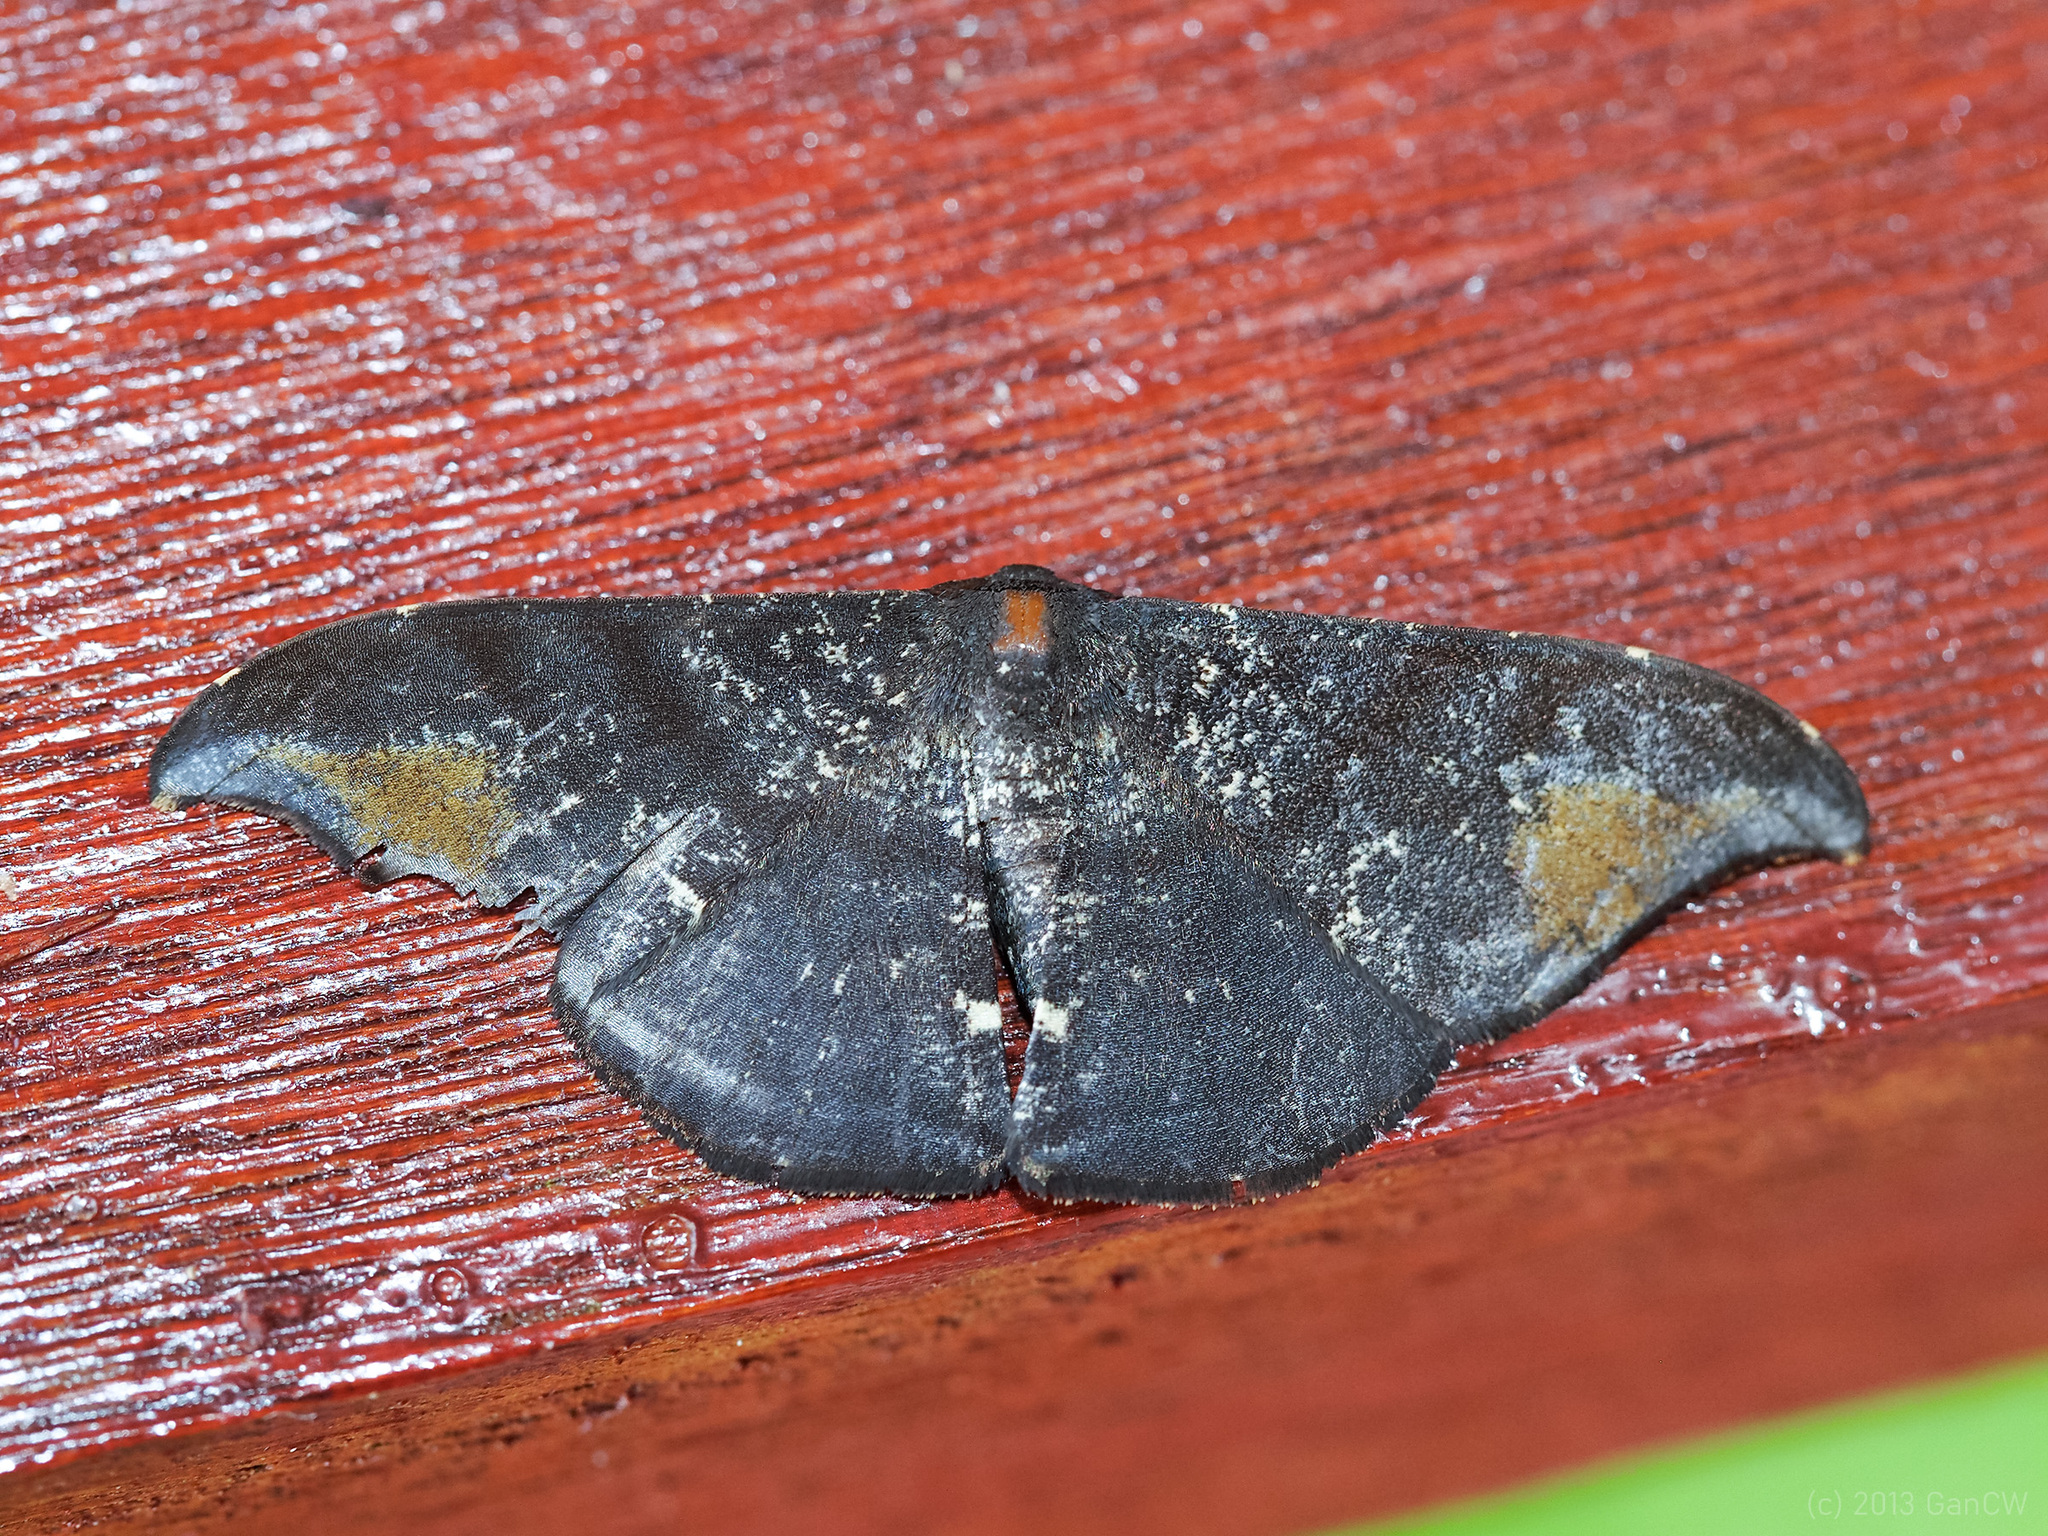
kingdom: Animalia
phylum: Arthropoda
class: Insecta
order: Lepidoptera
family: Geometridae
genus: Hyposidra
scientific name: Hyposidra aquilaria
